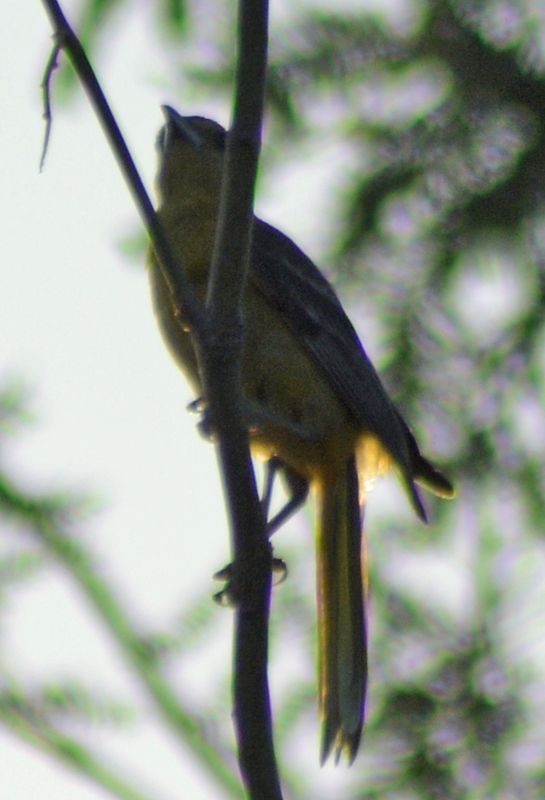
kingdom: Animalia
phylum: Chordata
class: Aves
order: Passeriformes
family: Icteridae
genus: Icterus
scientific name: Icterus cucullatus
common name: Hooded oriole
